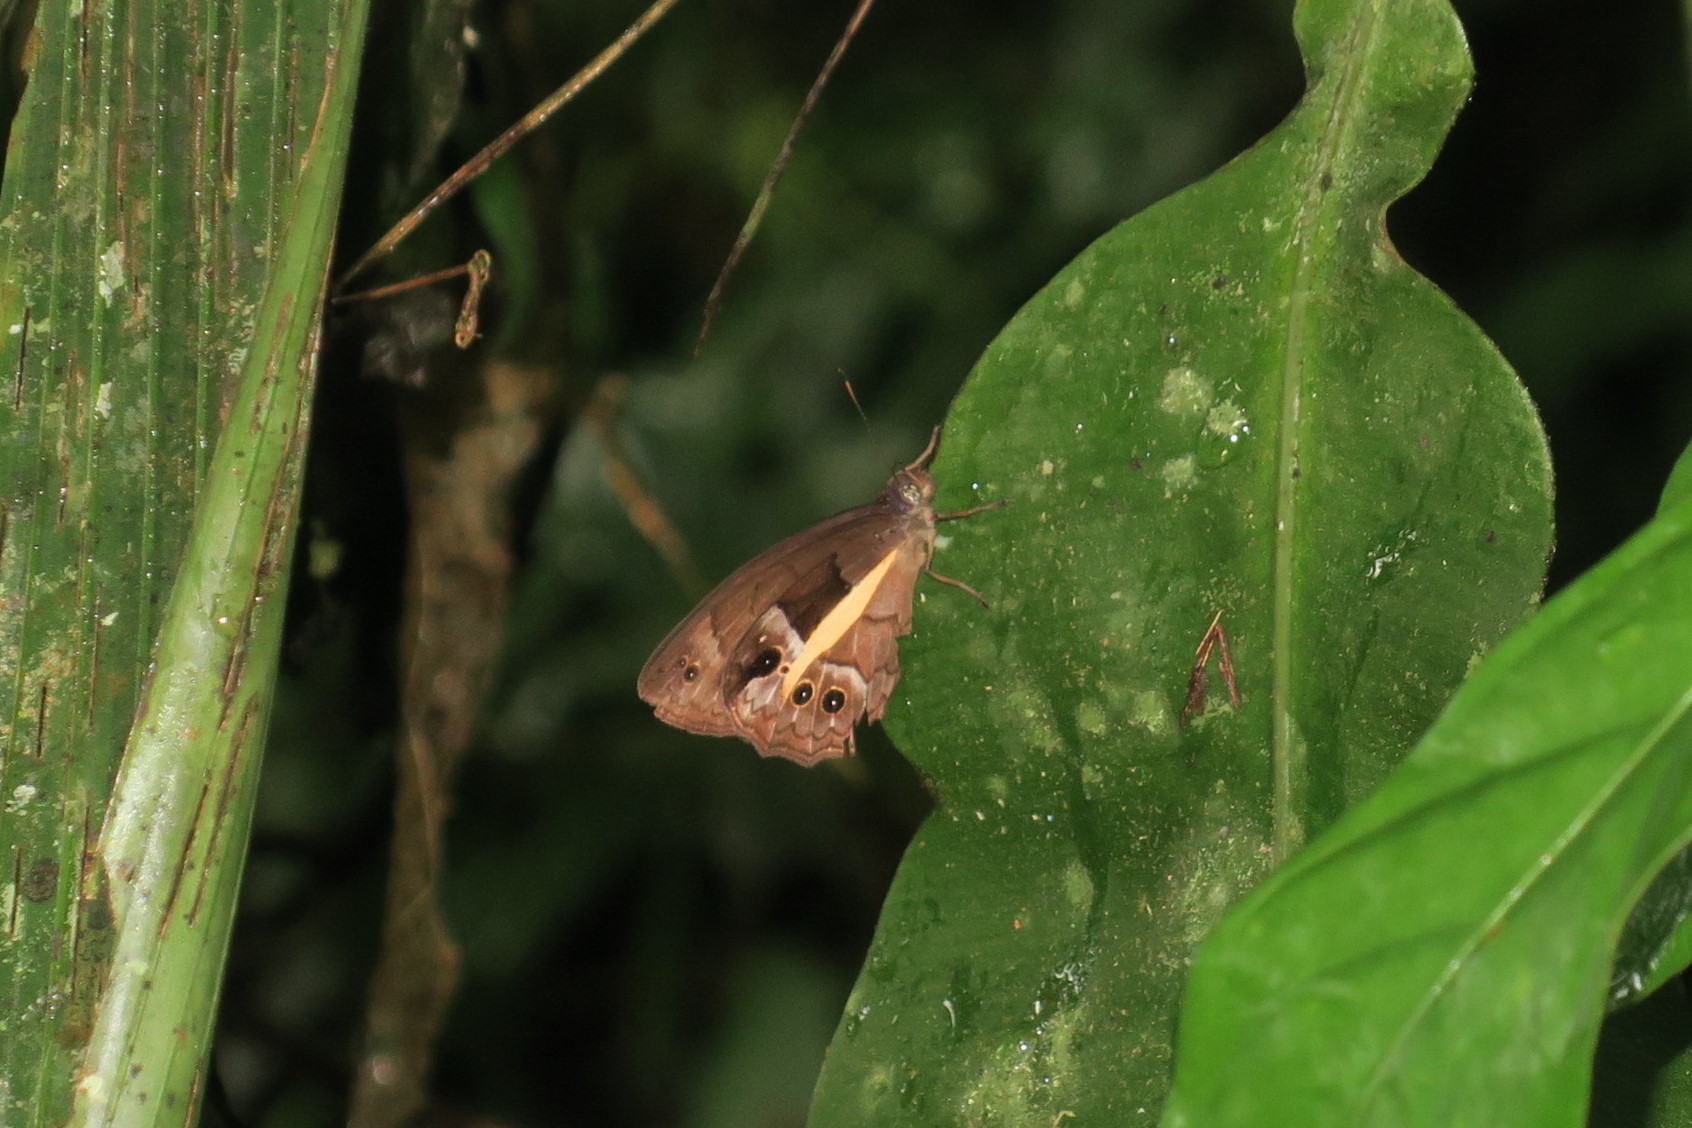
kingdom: Animalia
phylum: Arthropoda
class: Insecta
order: Lepidoptera
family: Nymphalidae
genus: Posttaygetis
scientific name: Posttaygetis penelea
